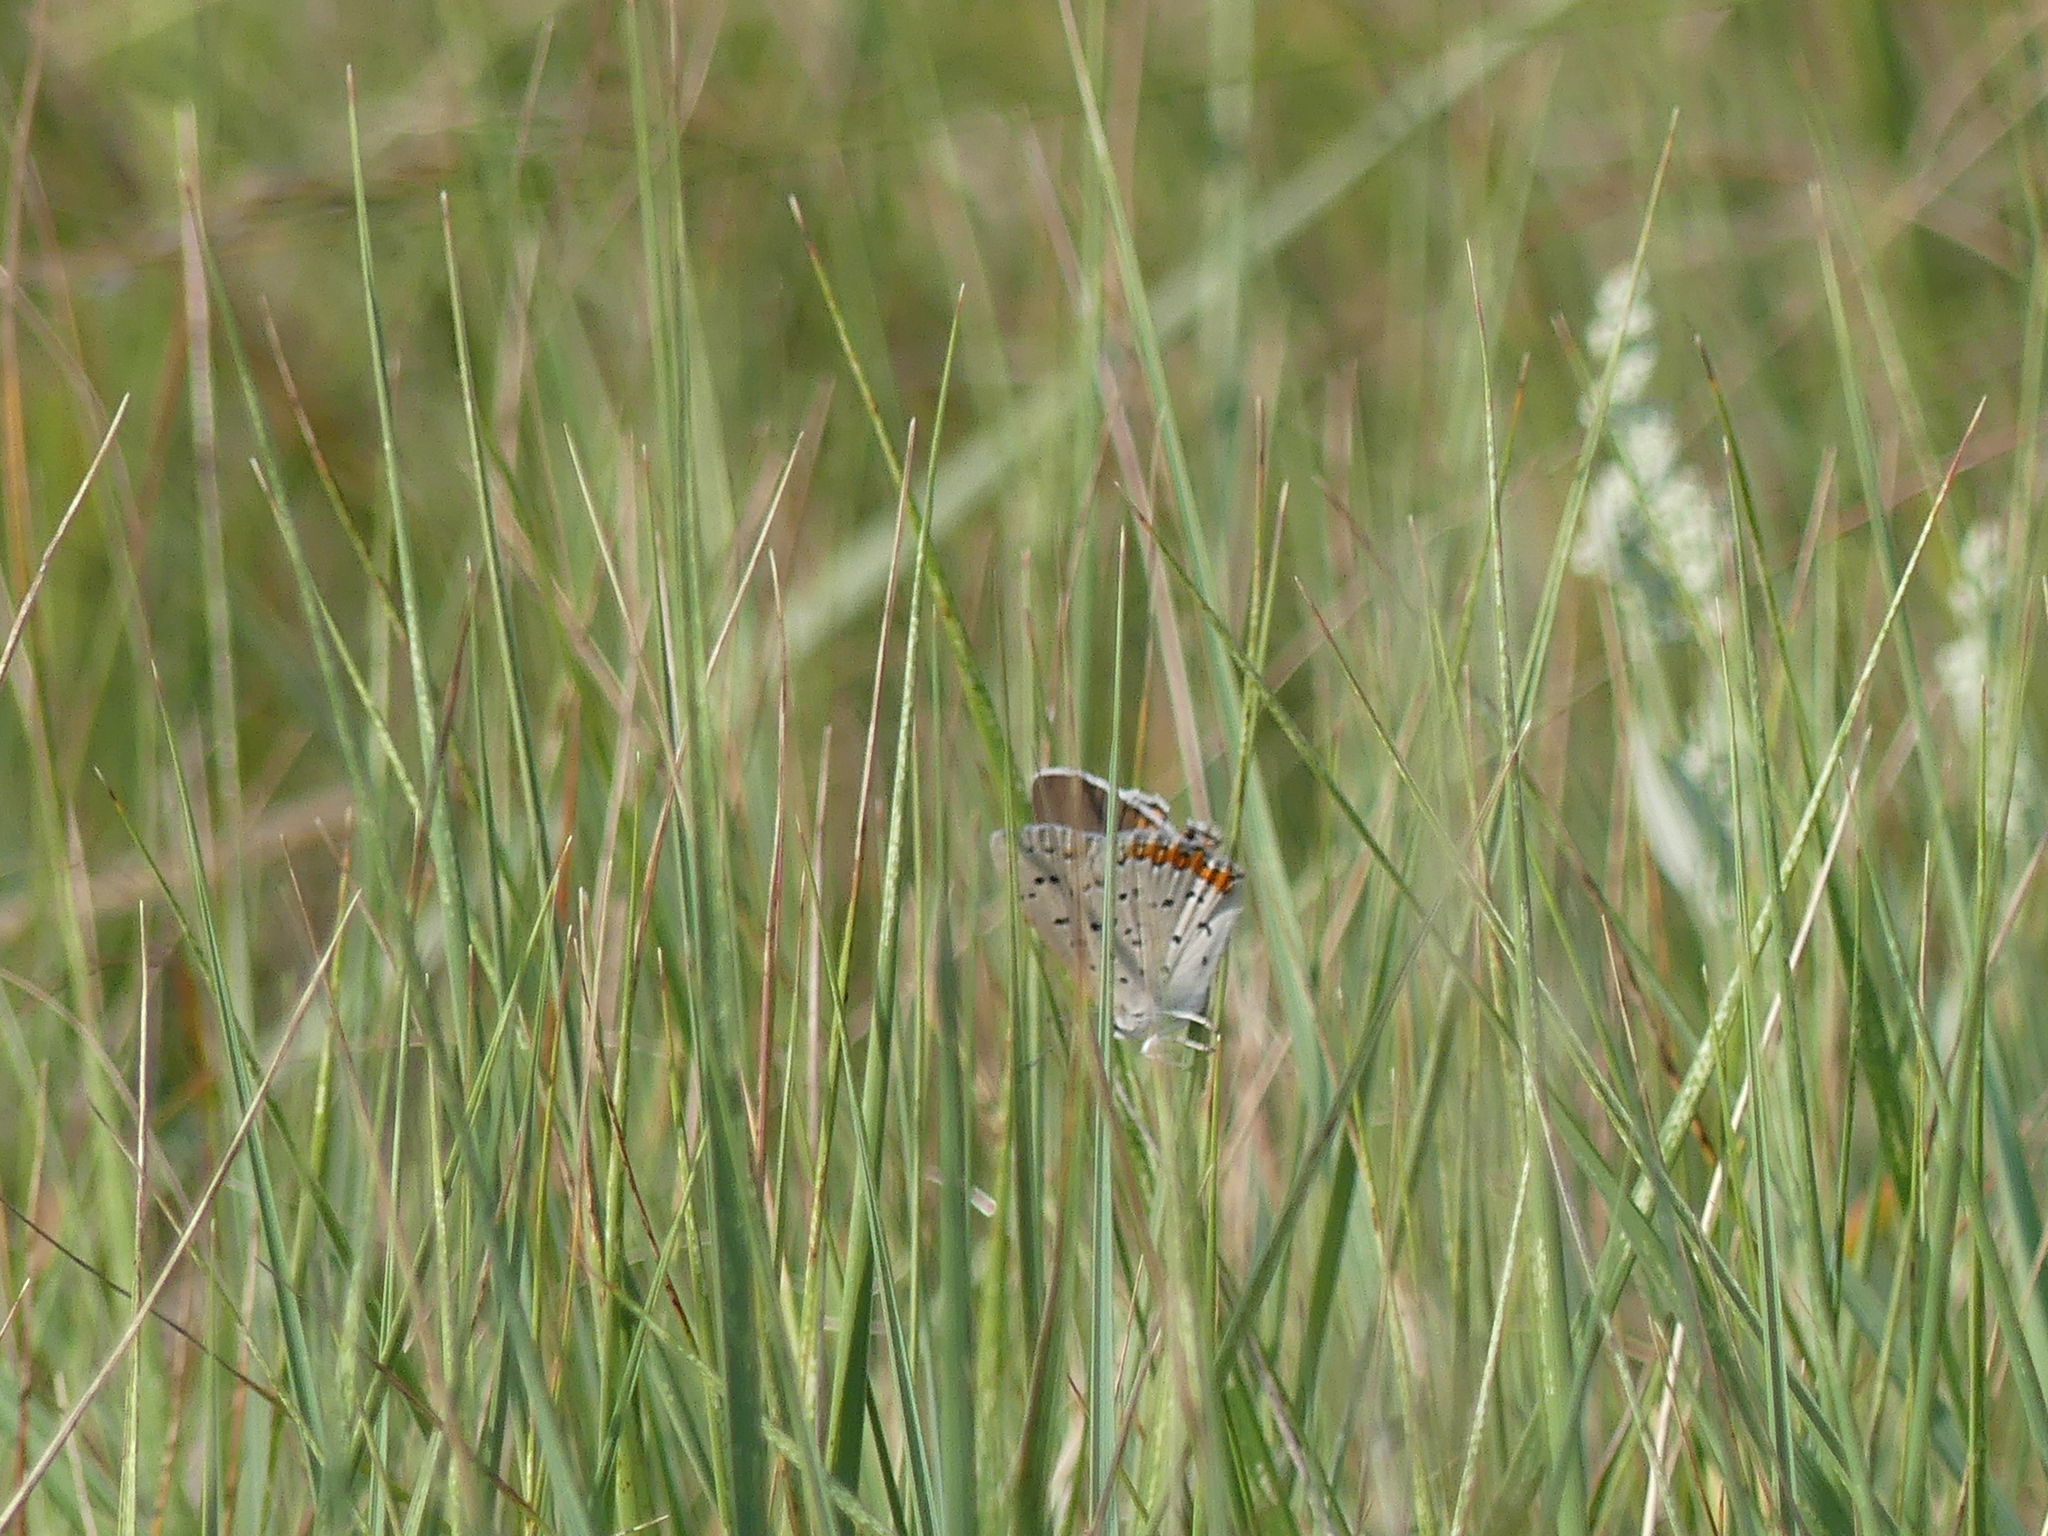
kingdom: Animalia
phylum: Arthropoda
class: Insecta
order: Lepidoptera
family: Lycaenidae
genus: Tharsalea
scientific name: Tharsalea dione
